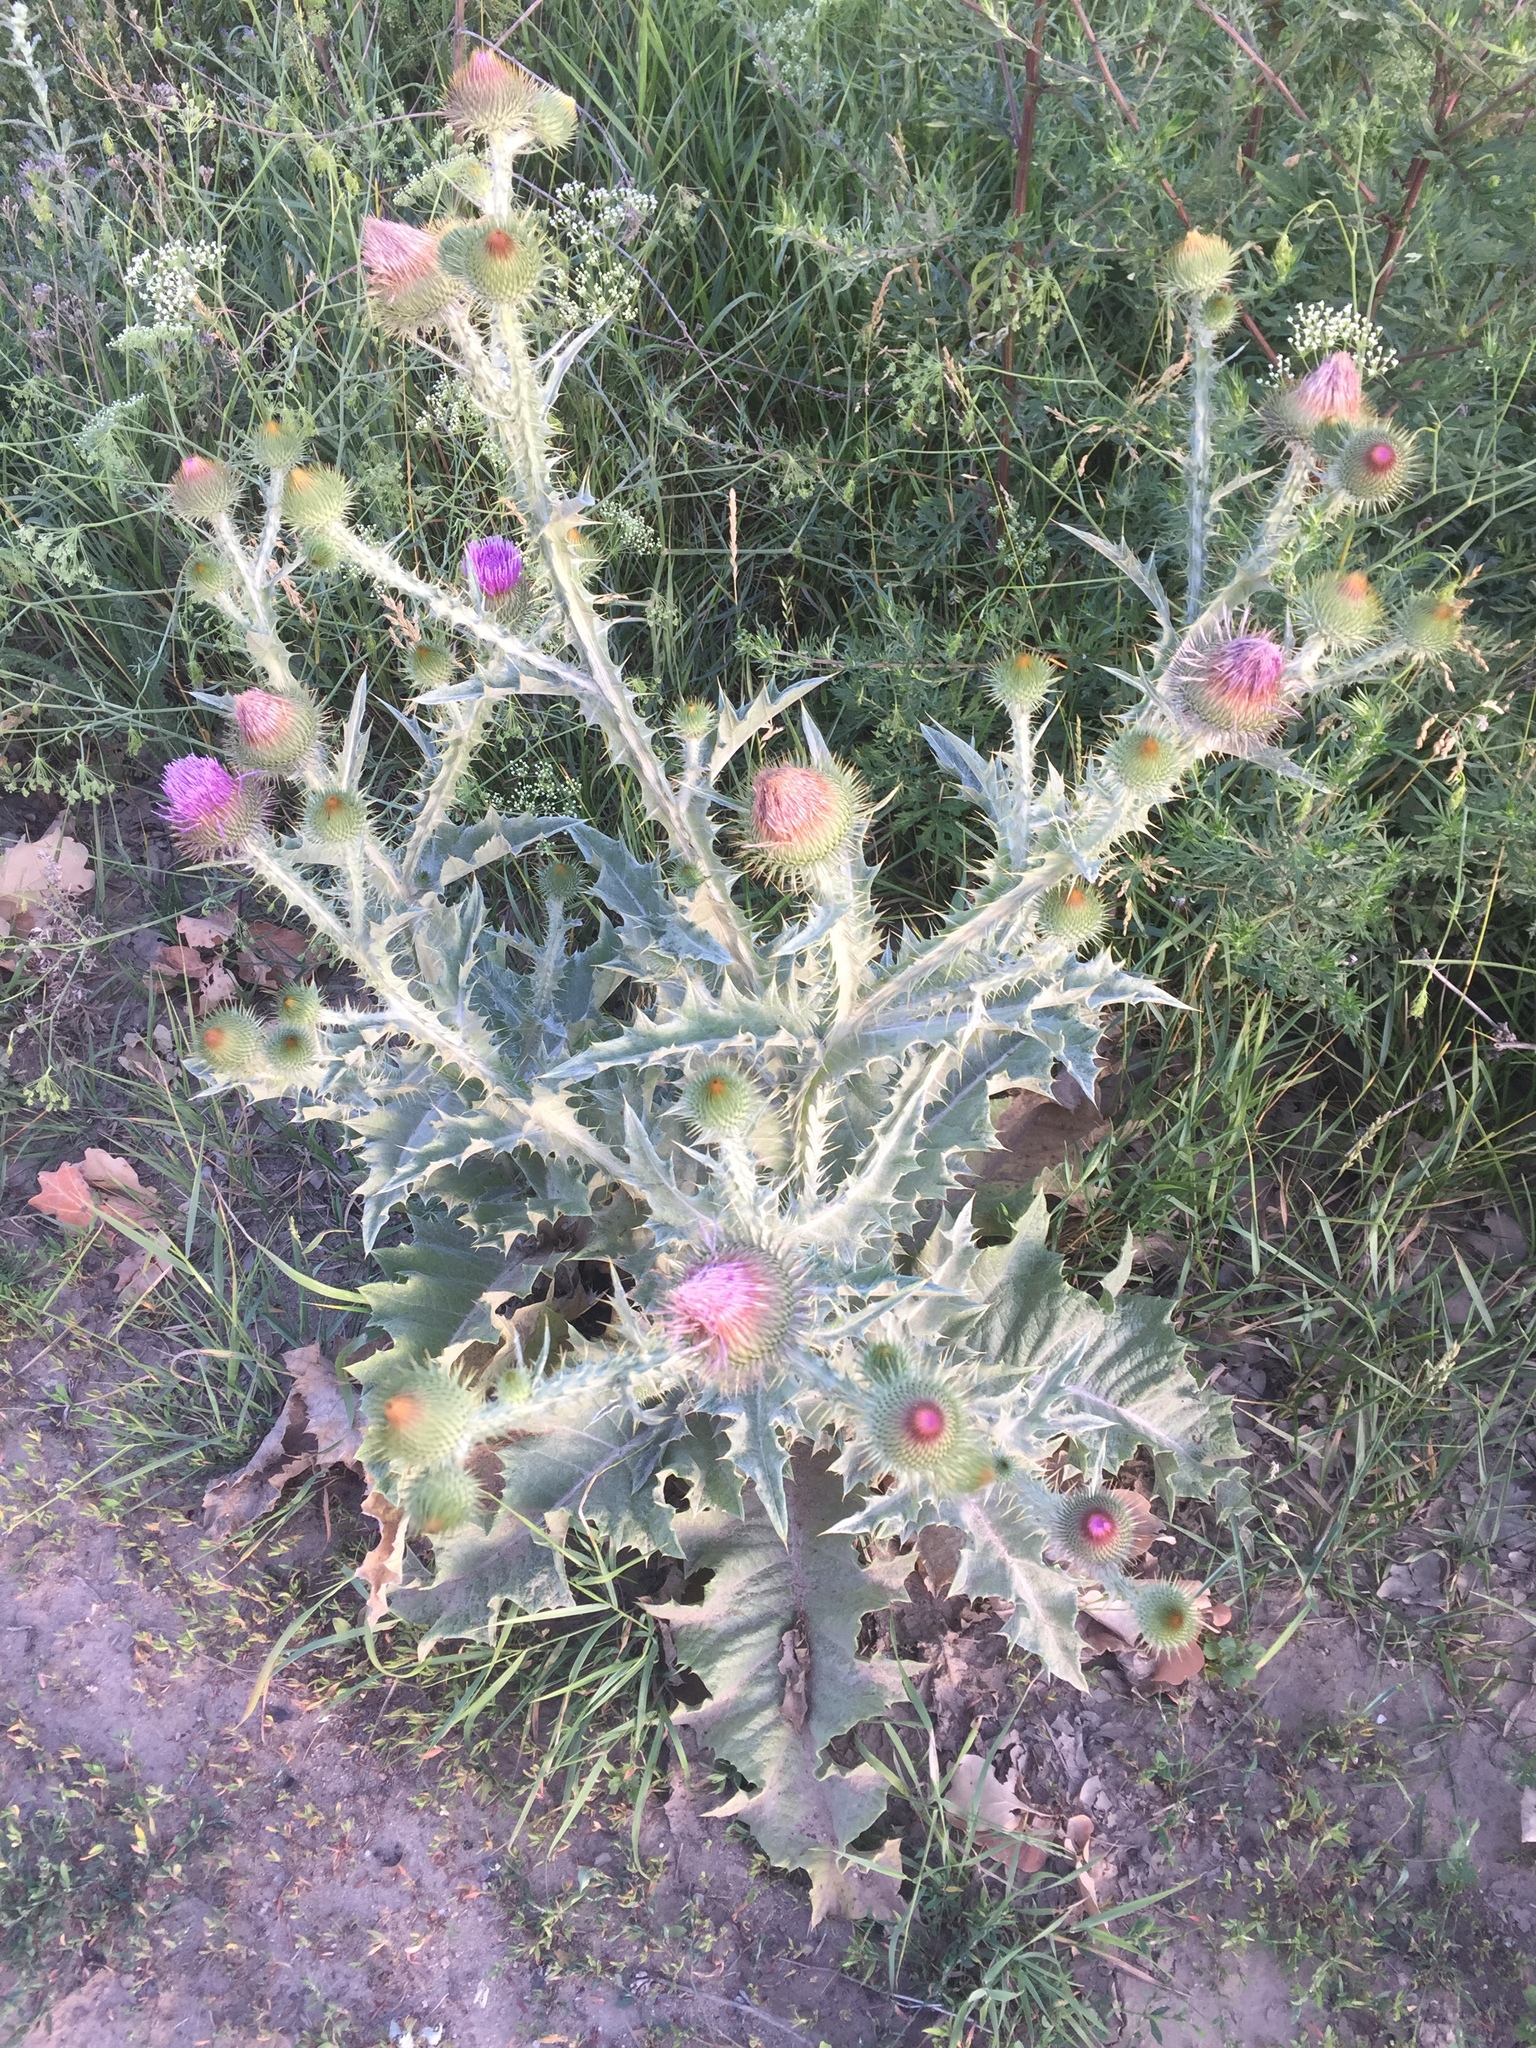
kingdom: Plantae
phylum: Tracheophyta
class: Magnoliopsida
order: Asterales
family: Asteraceae
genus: Onopordum
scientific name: Onopordum acanthium
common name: Scotch thistle
